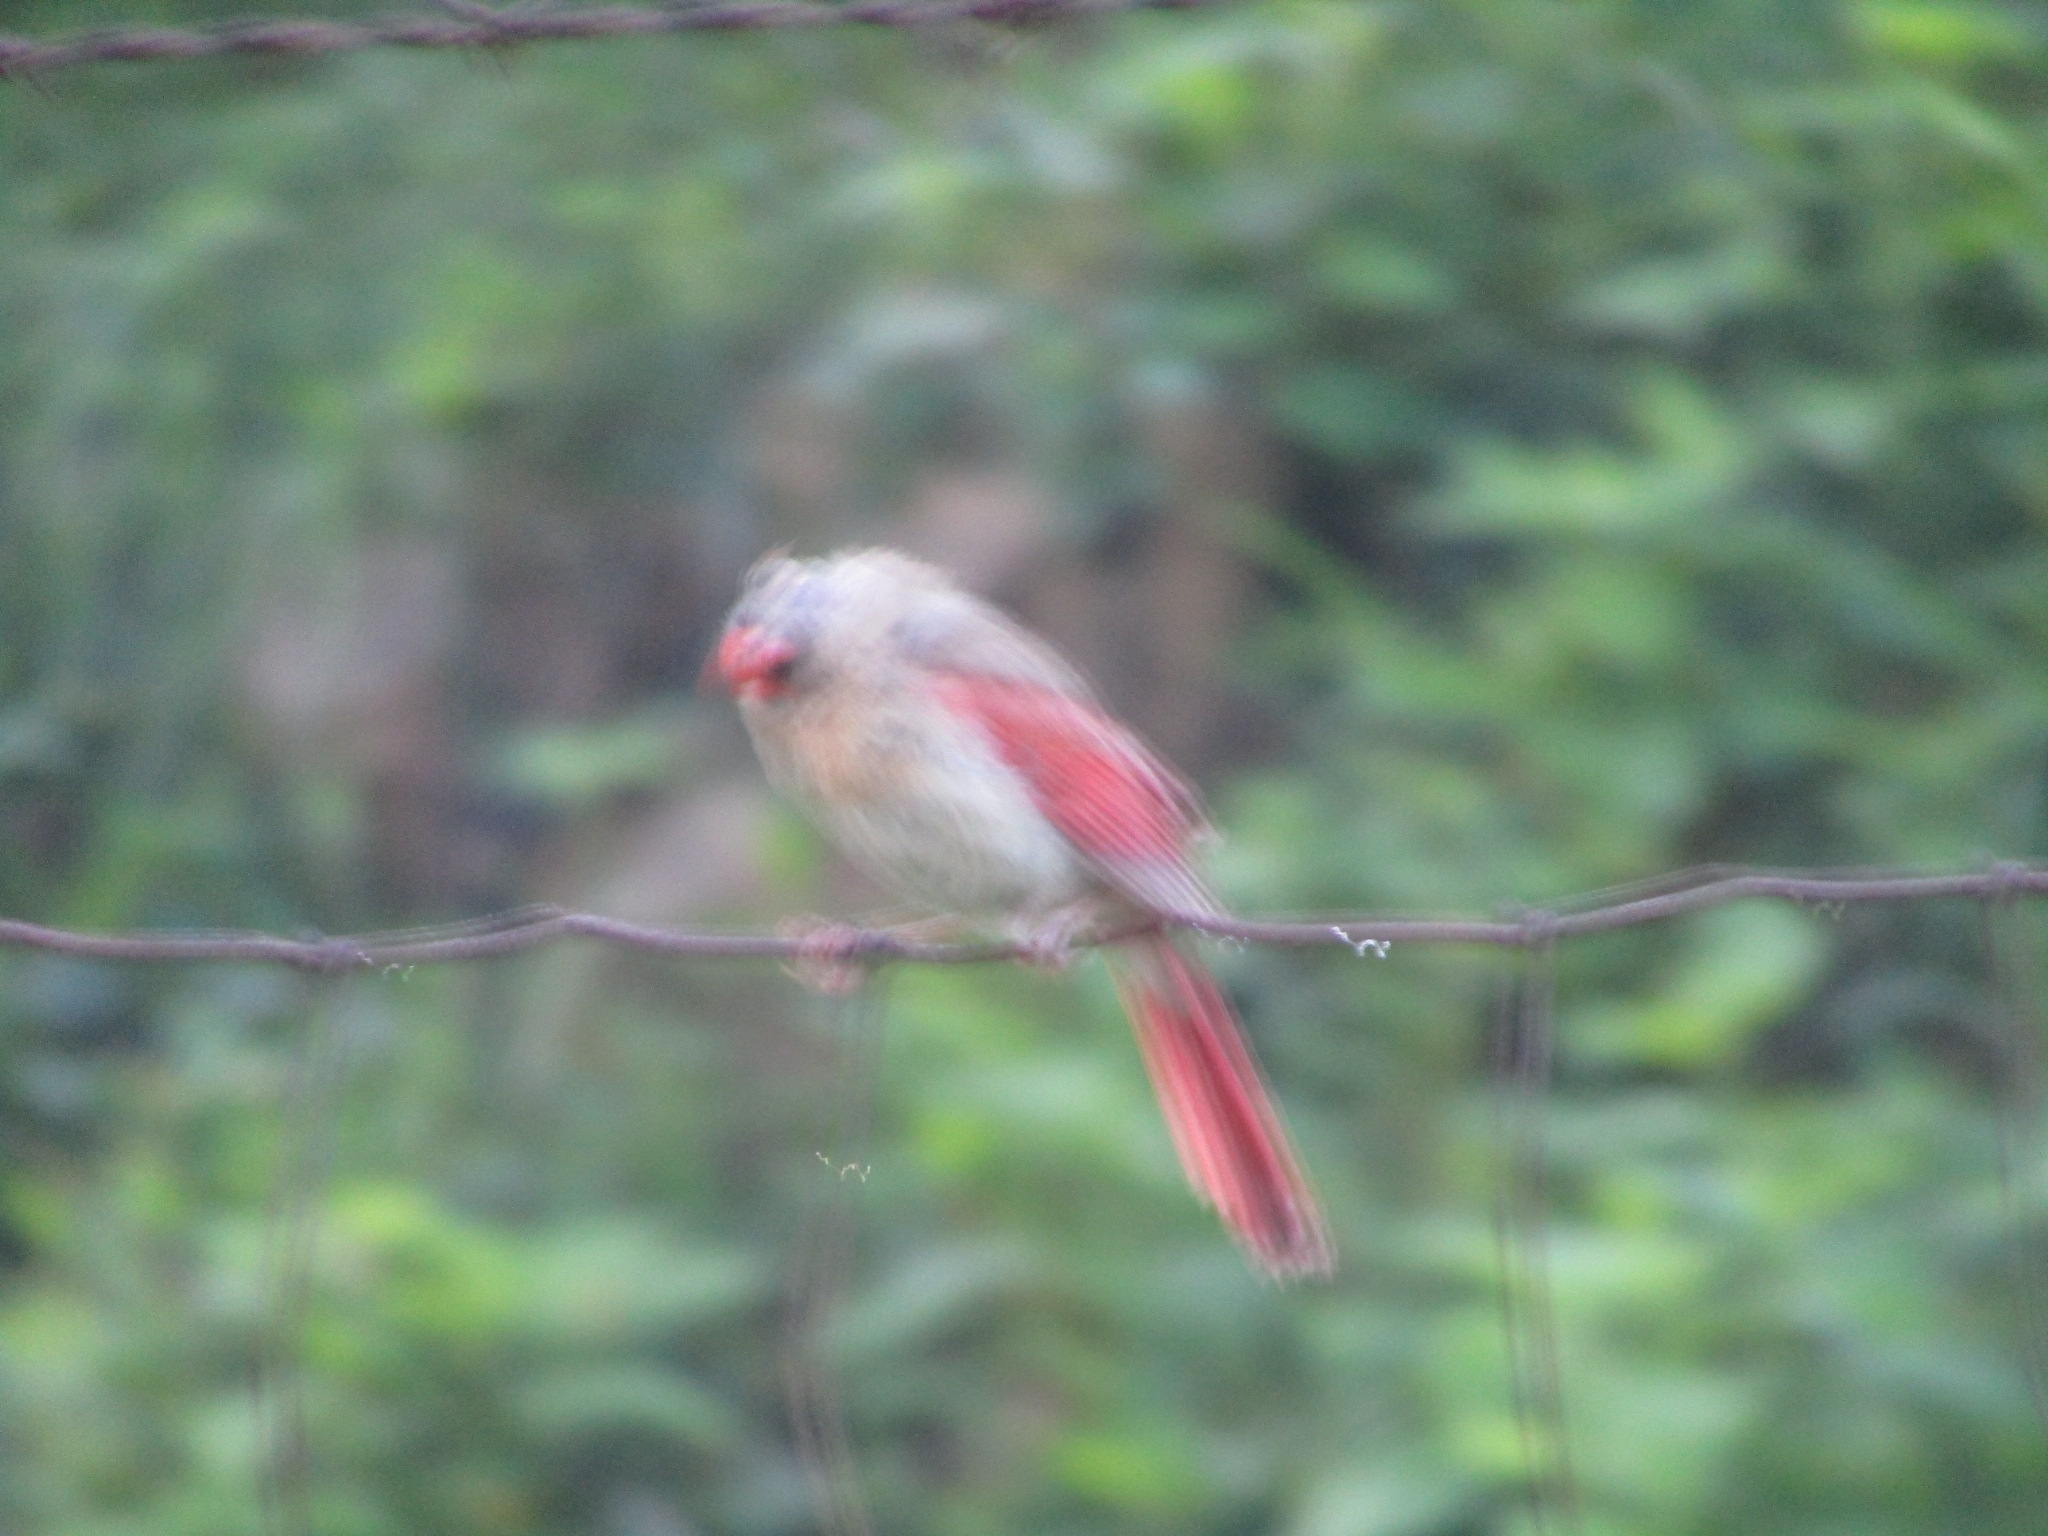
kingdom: Animalia
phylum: Chordata
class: Aves
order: Passeriformes
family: Cardinalidae
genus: Cardinalis
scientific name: Cardinalis cardinalis
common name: Northern cardinal
